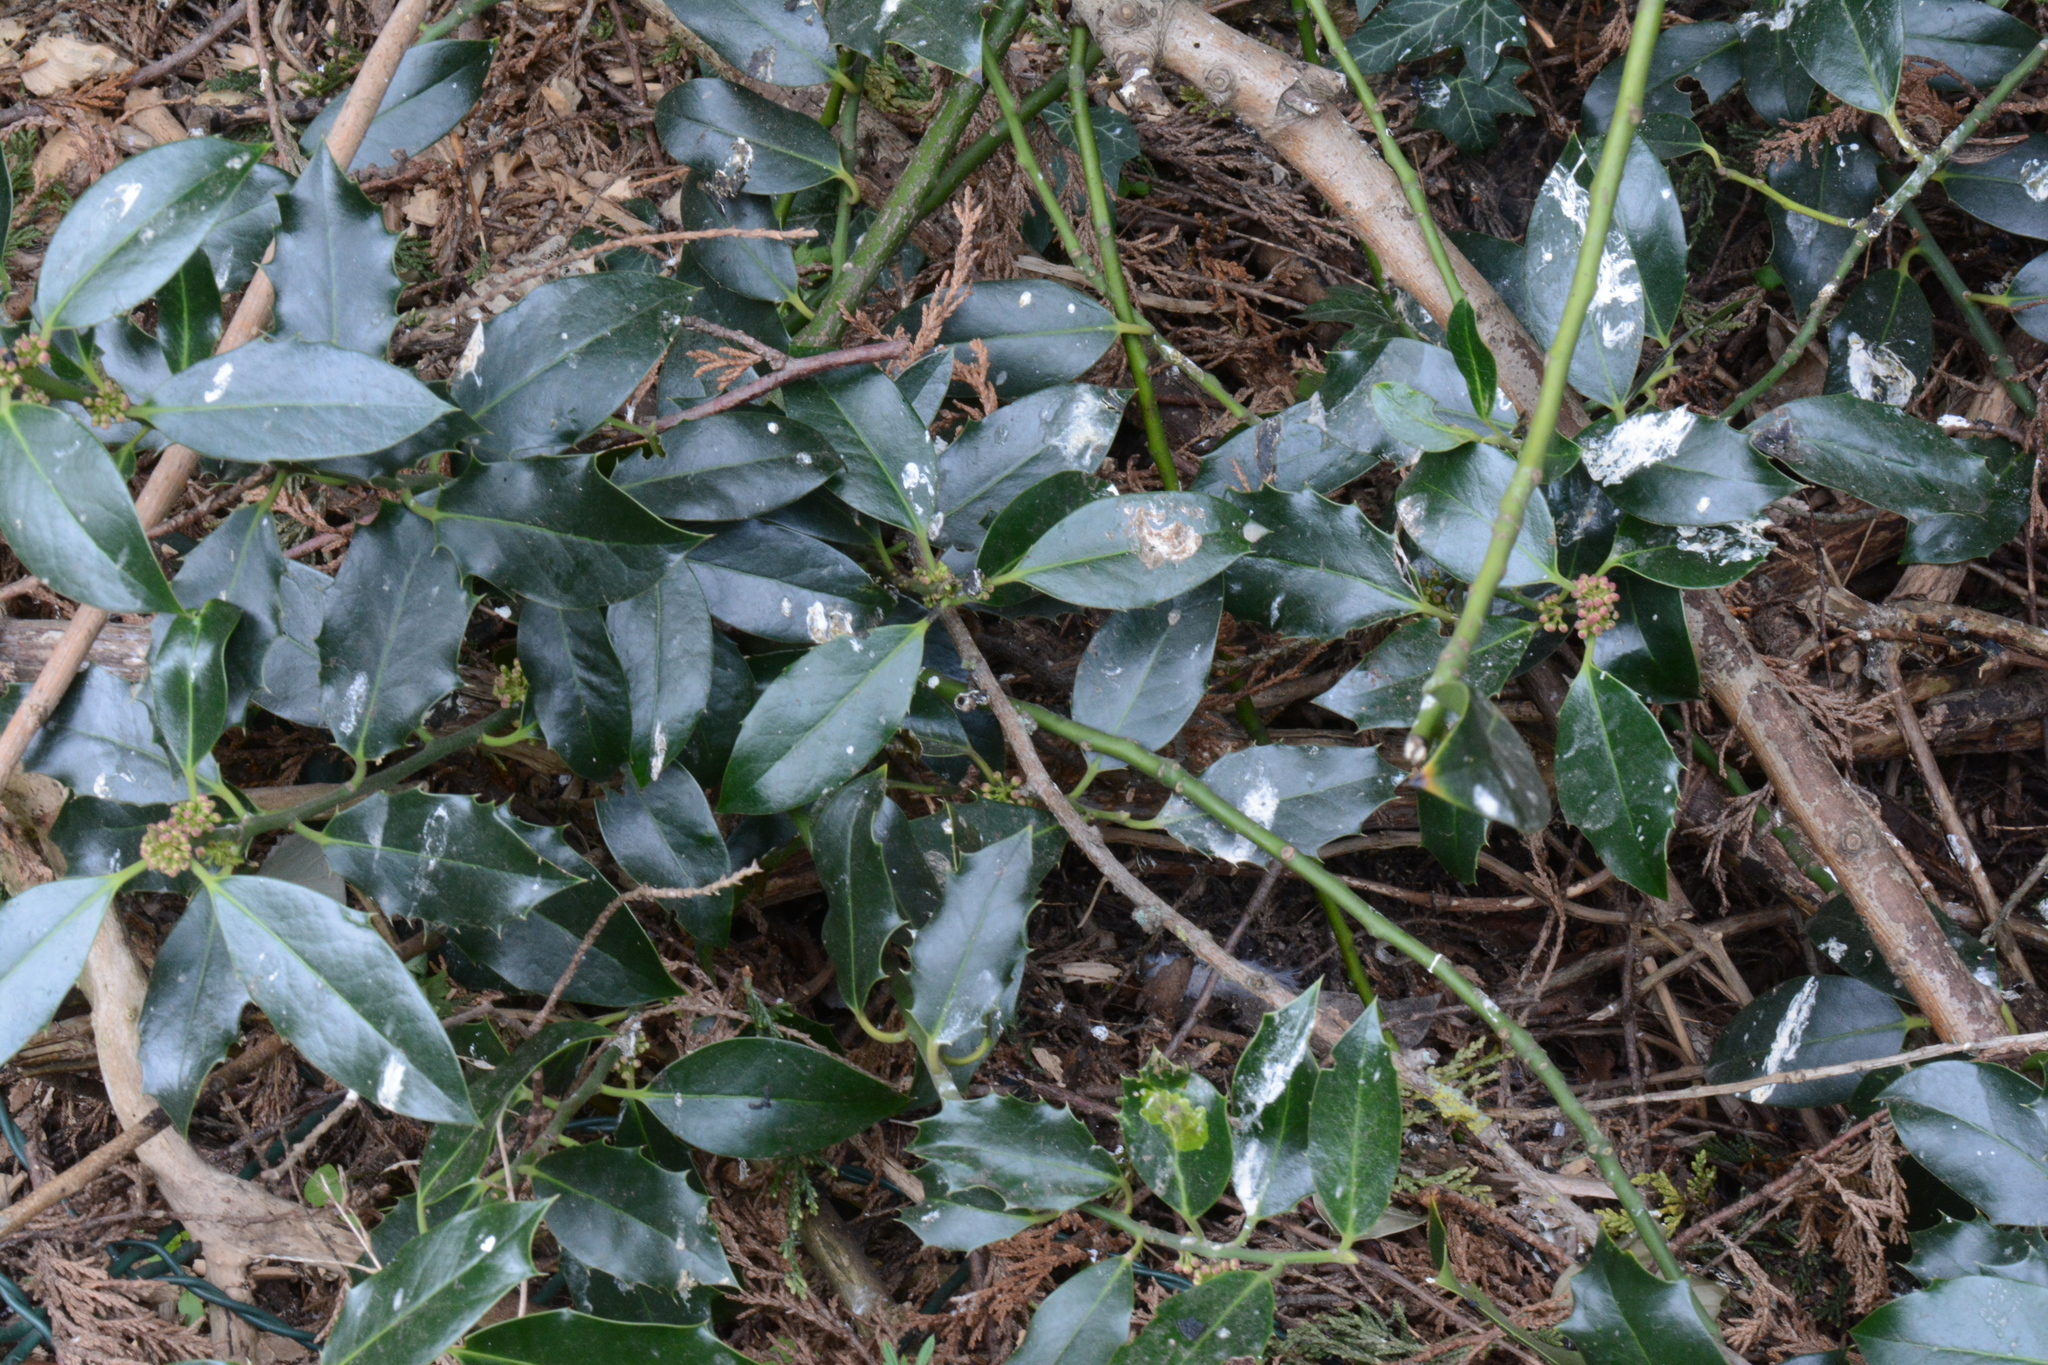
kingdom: Plantae
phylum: Tracheophyta
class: Magnoliopsida
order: Aquifoliales
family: Aquifoliaceae
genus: Ilex
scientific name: Ilex aquifolium
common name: English holly
